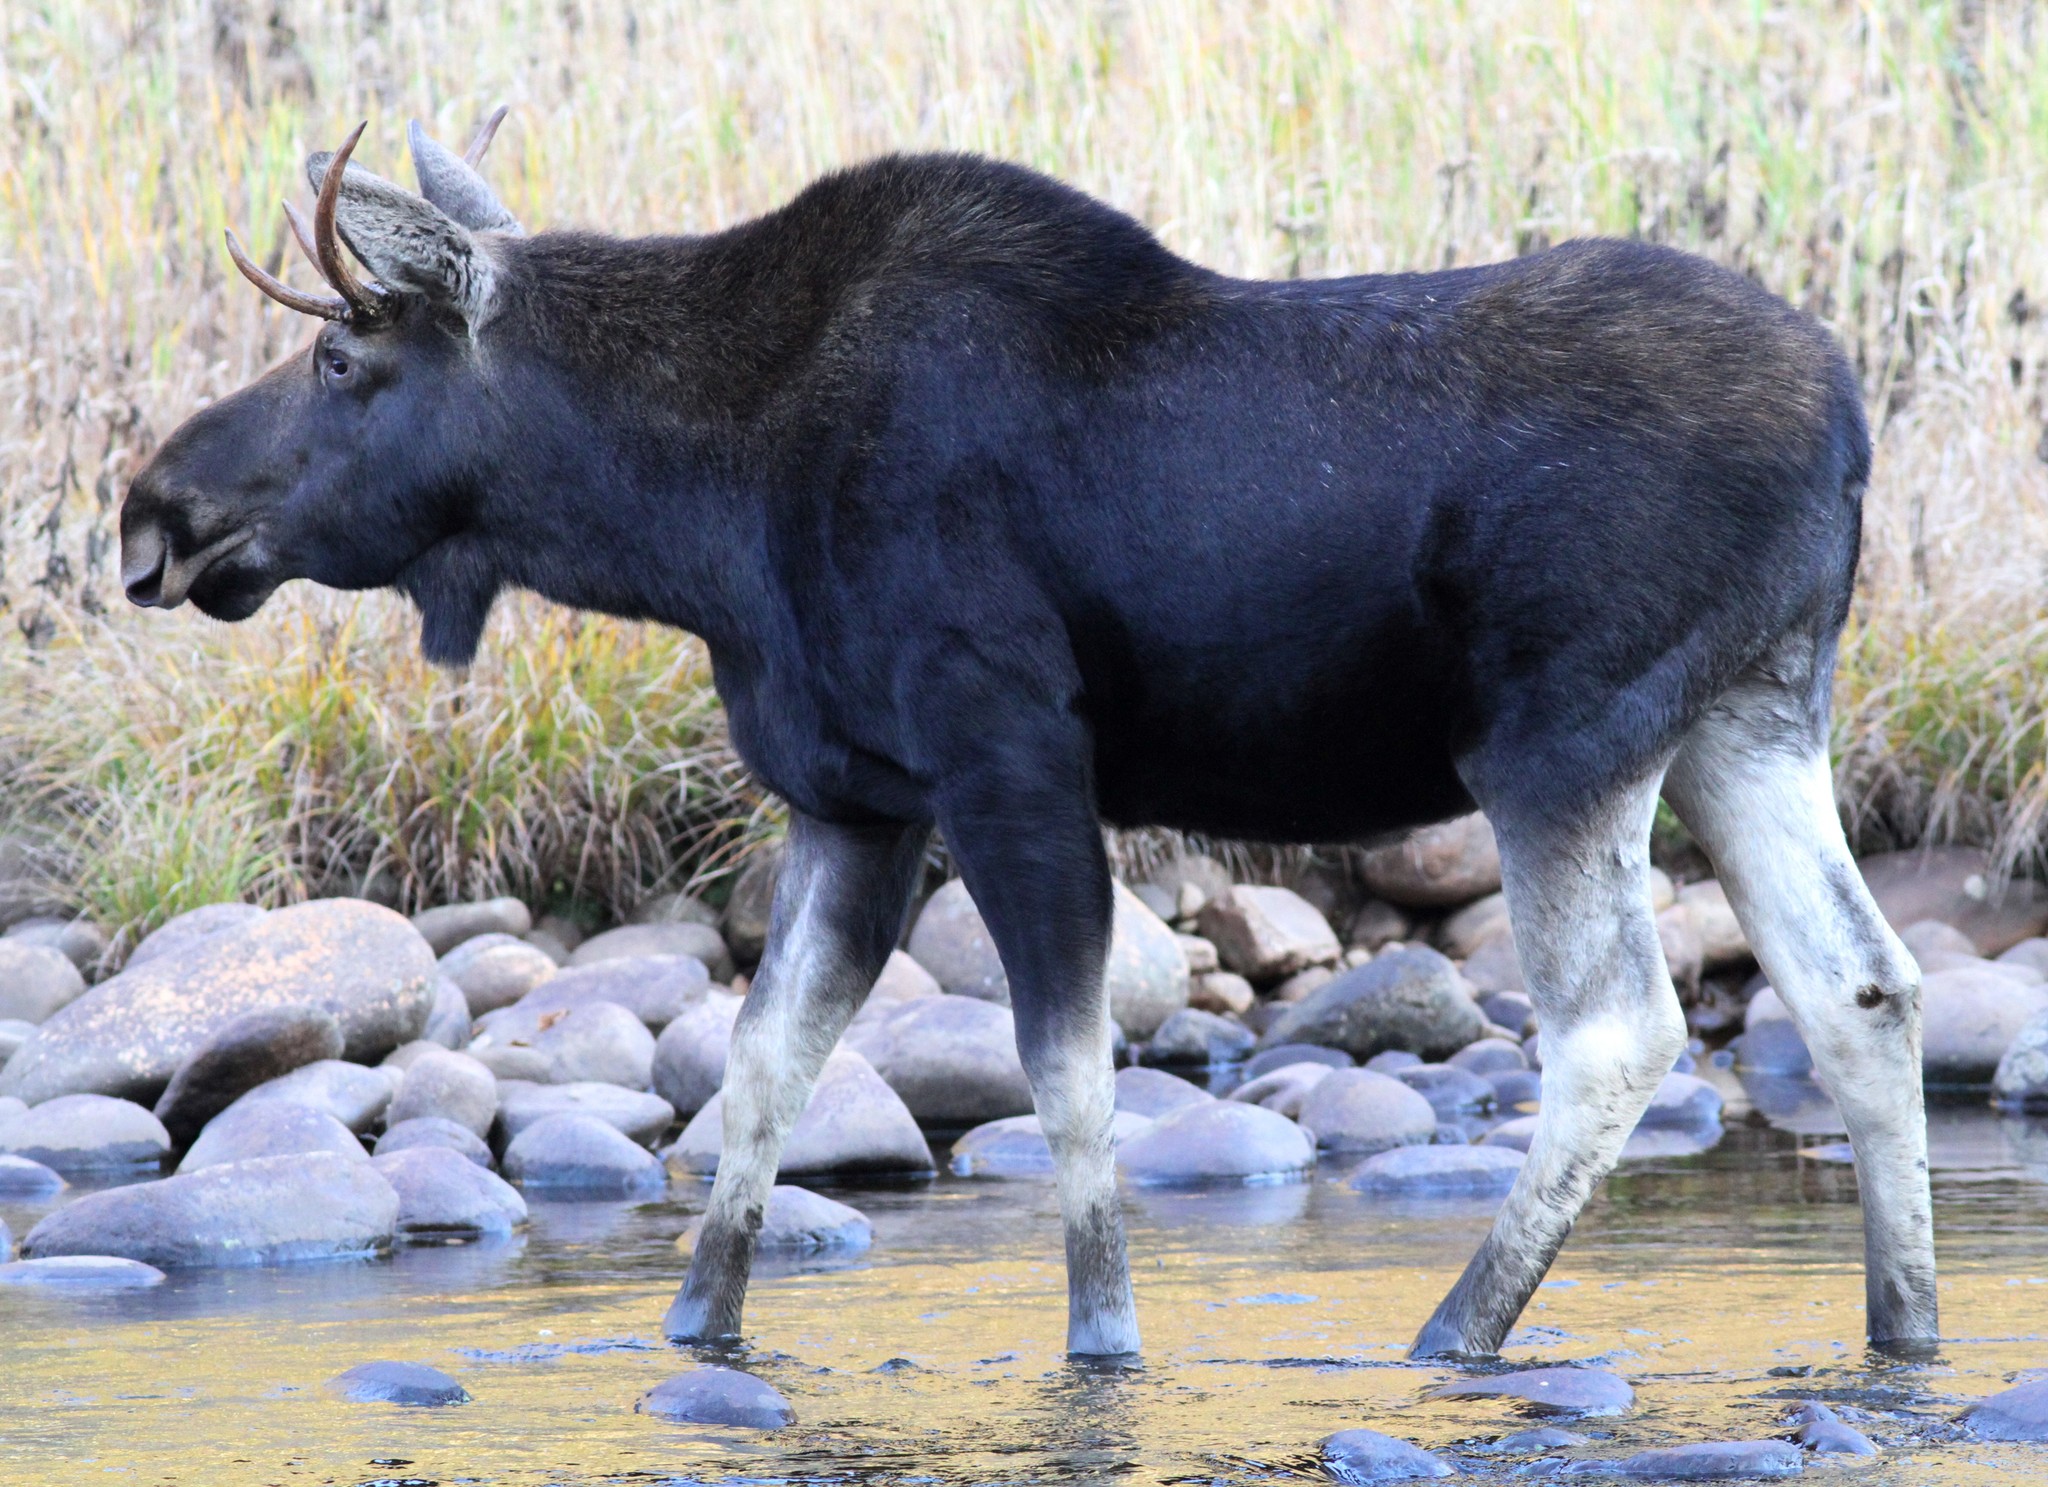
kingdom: Animalia
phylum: Chordata
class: Mammalia
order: Artiodactyla
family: Cervidae
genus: Alces
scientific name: Alces americanus
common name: Moose
